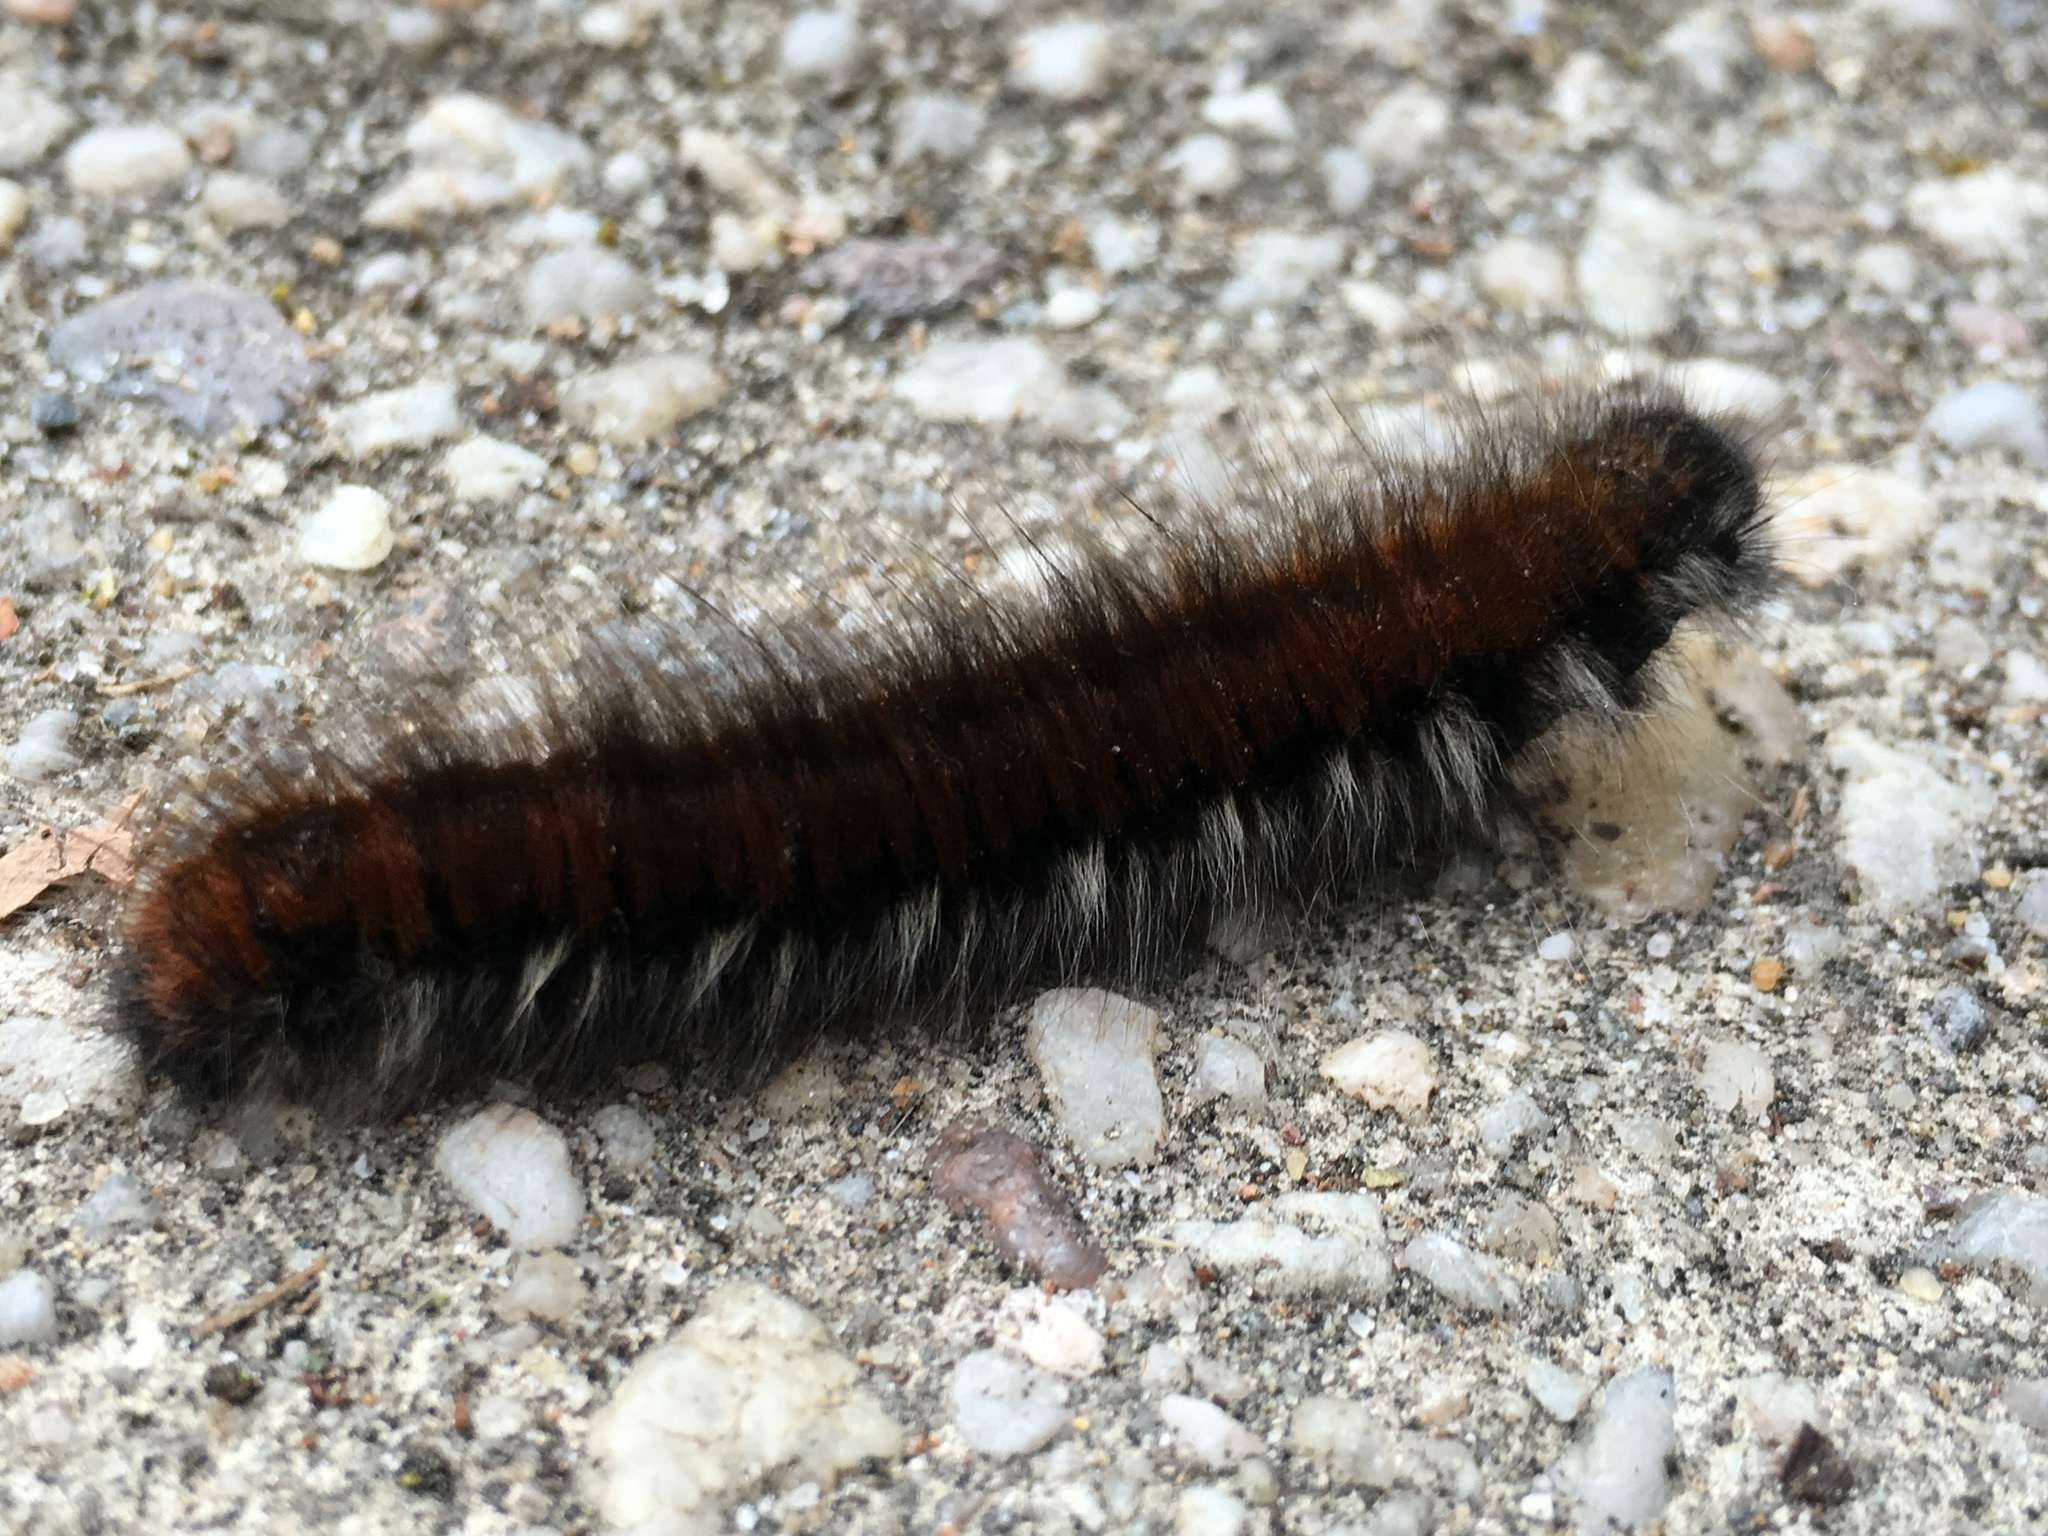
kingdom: Animalia
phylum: Arthropoda
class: Insecta
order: Lepidoptera
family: Lasiocampidae
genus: Macrothylacia
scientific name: Macrothylacia rubi
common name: Fox moth
